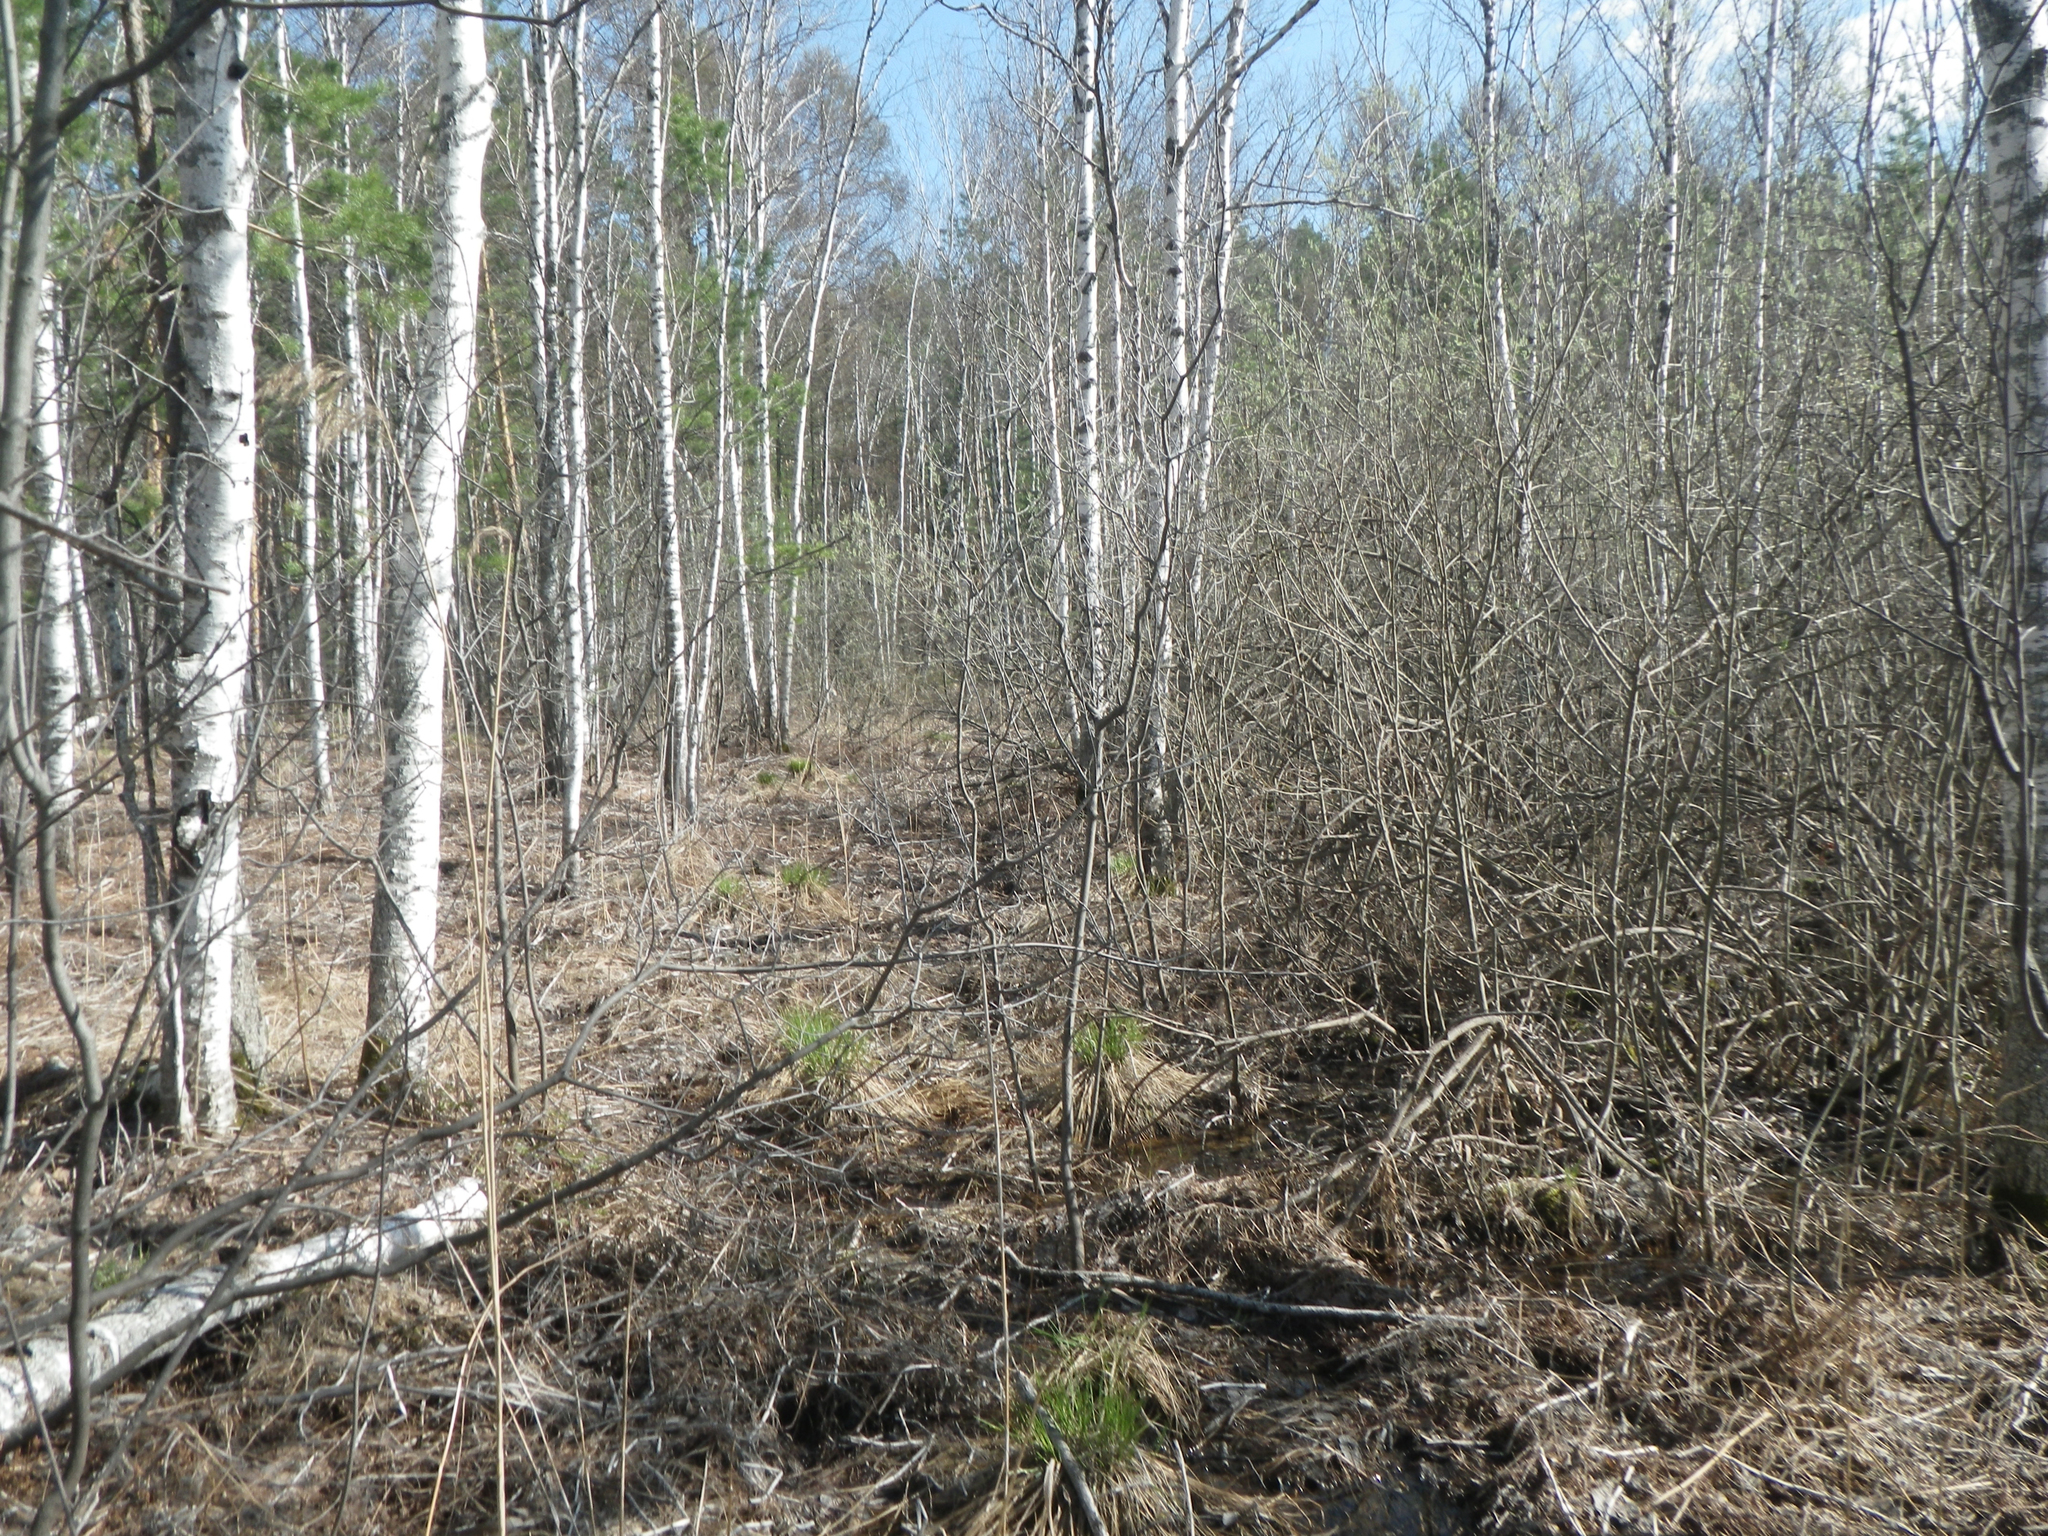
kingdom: Plantae
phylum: Tracheophyta
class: Magnoliopsida
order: Malpighiales
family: Salicaceae
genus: Salix
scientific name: Salix cinerea
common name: Common sallow
